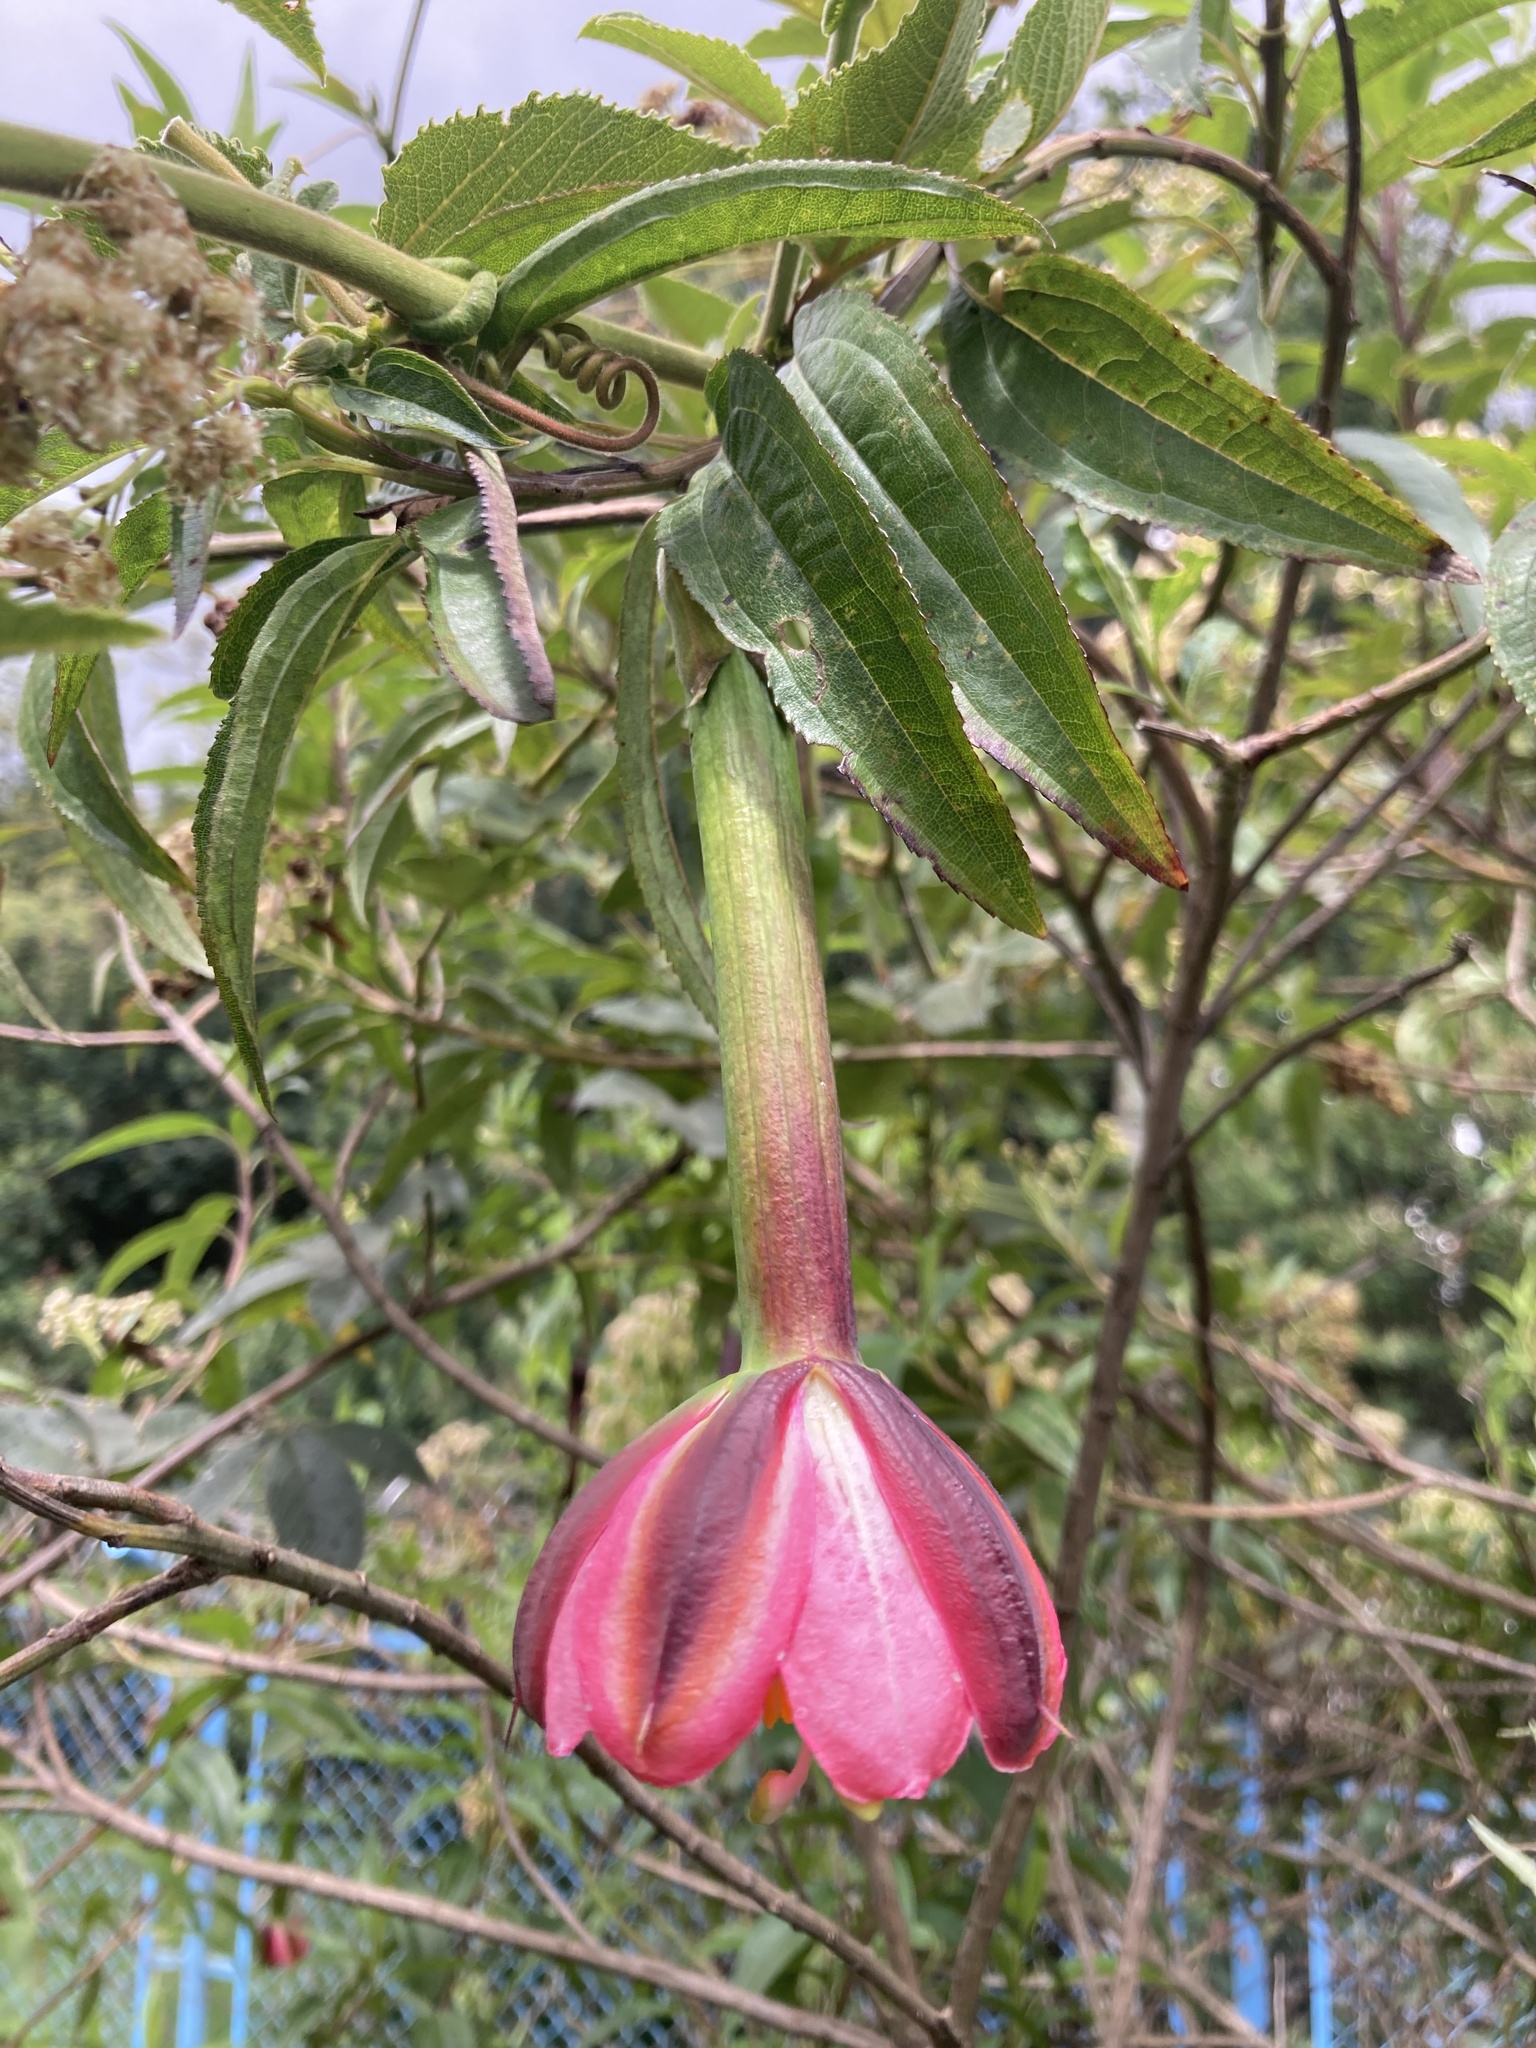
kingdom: Plantae
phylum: Tracheophyta
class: Magnoliopsida
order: Malpighiales
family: Passifloraceae
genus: Passiflora
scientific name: Passiflora tripartita
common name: Banana poka
